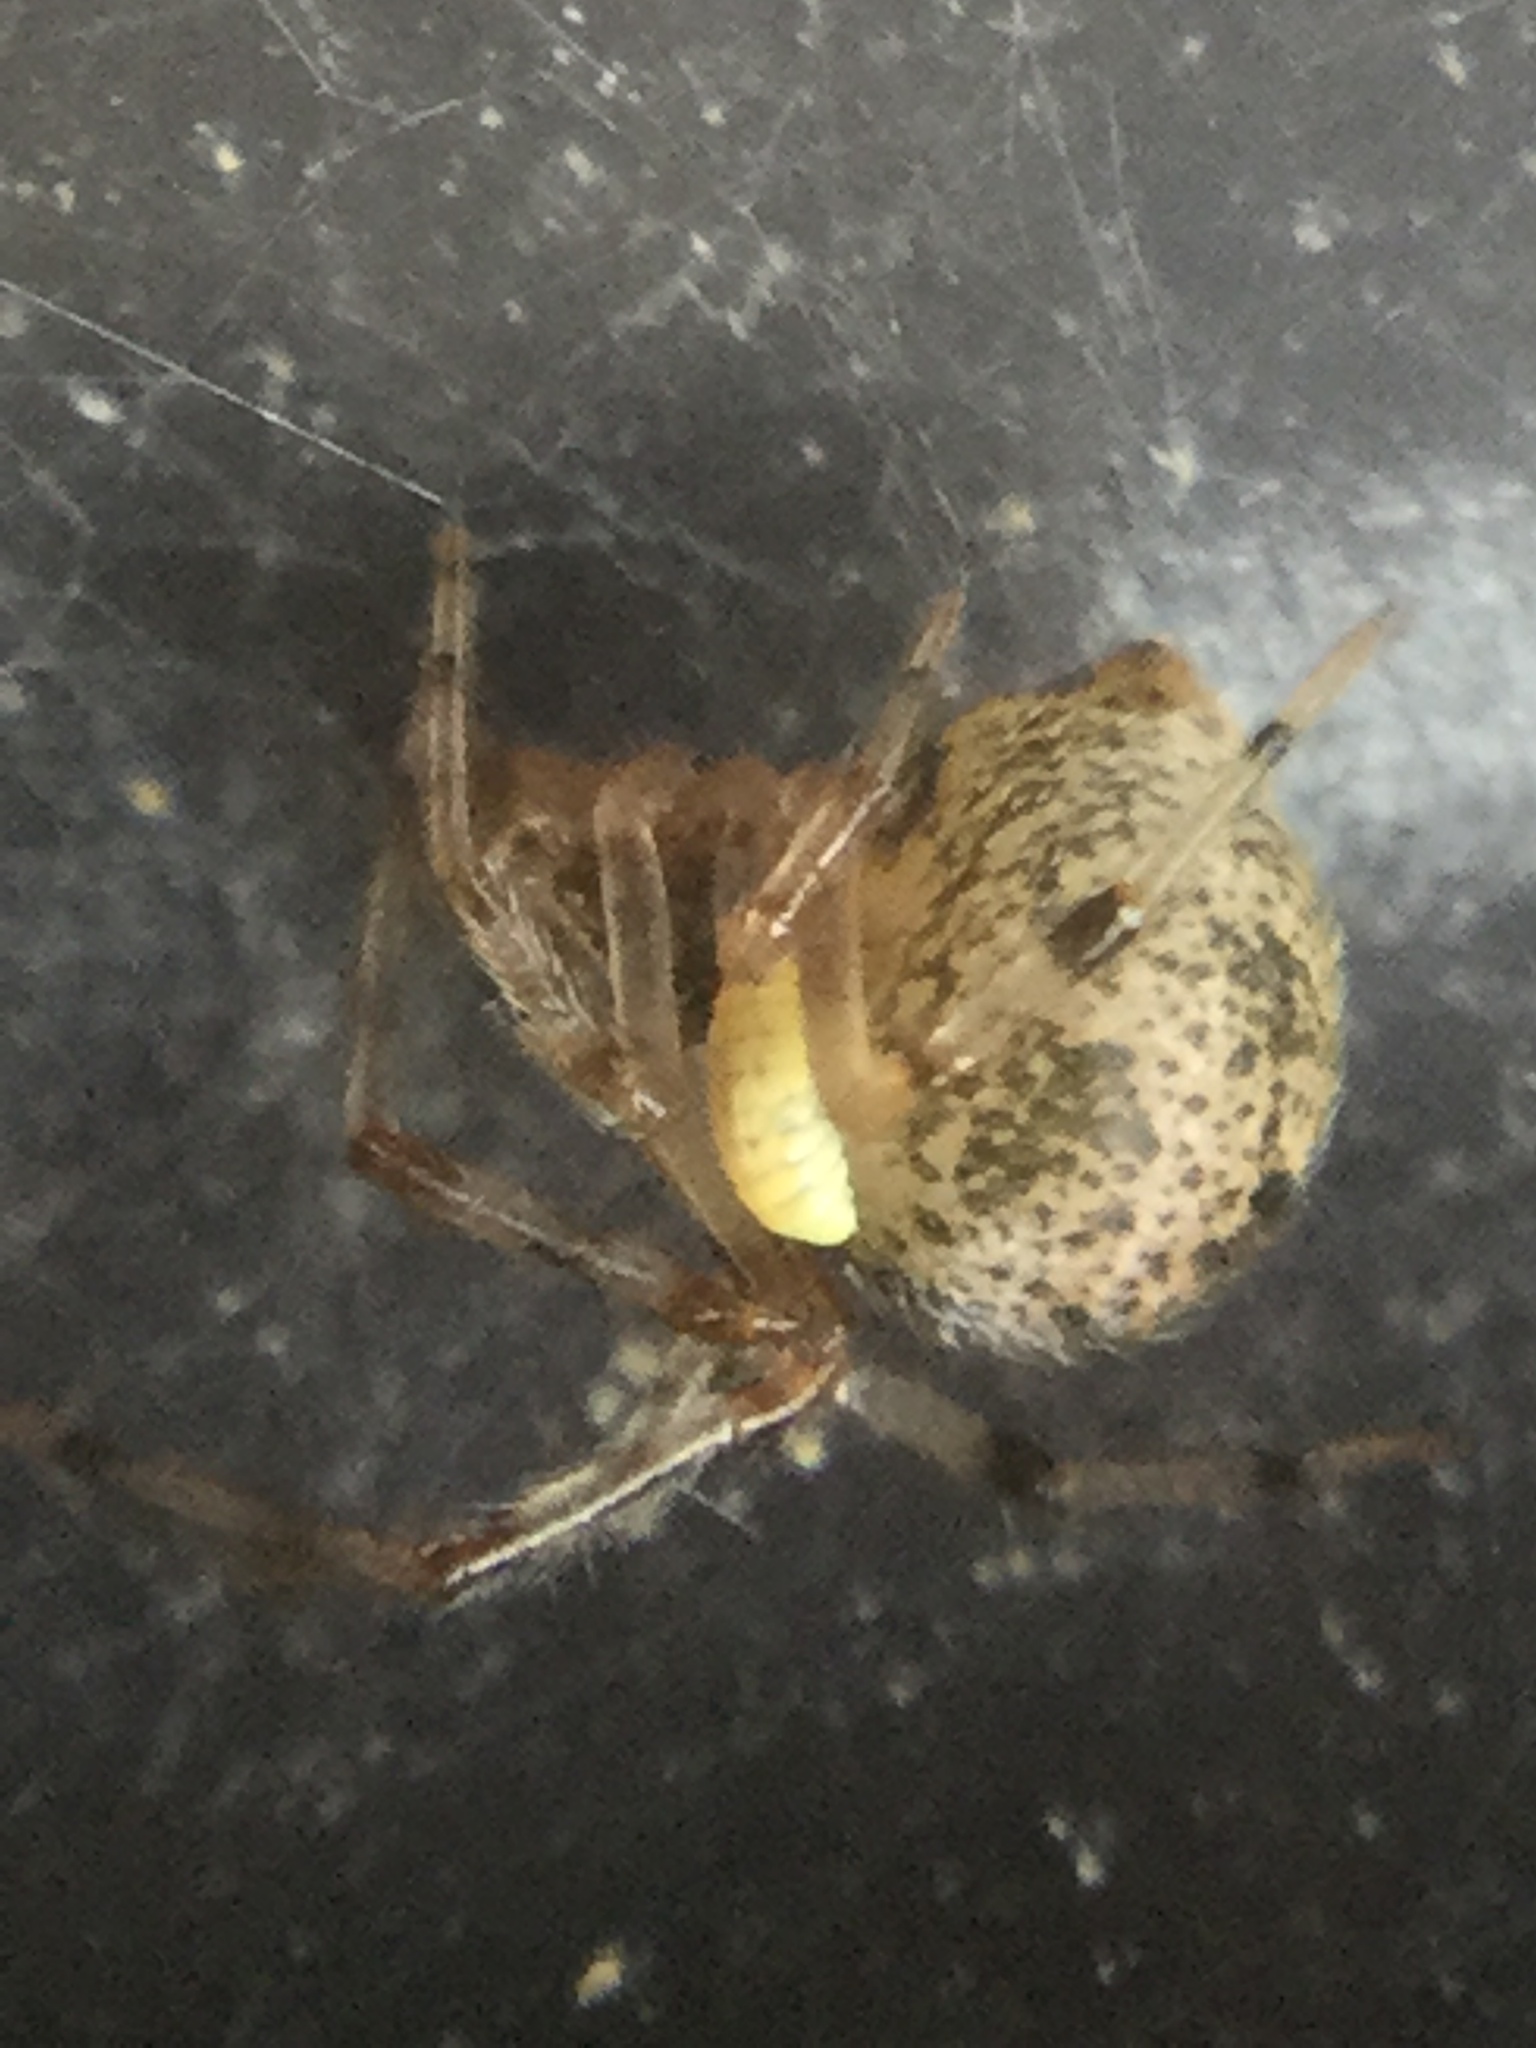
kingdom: Animalia
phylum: Arthropoda
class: Arachnida
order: Araneae
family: Theridiidae
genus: Parasteatoda
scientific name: Parasteatoda tepidariorum
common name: Common house spider
